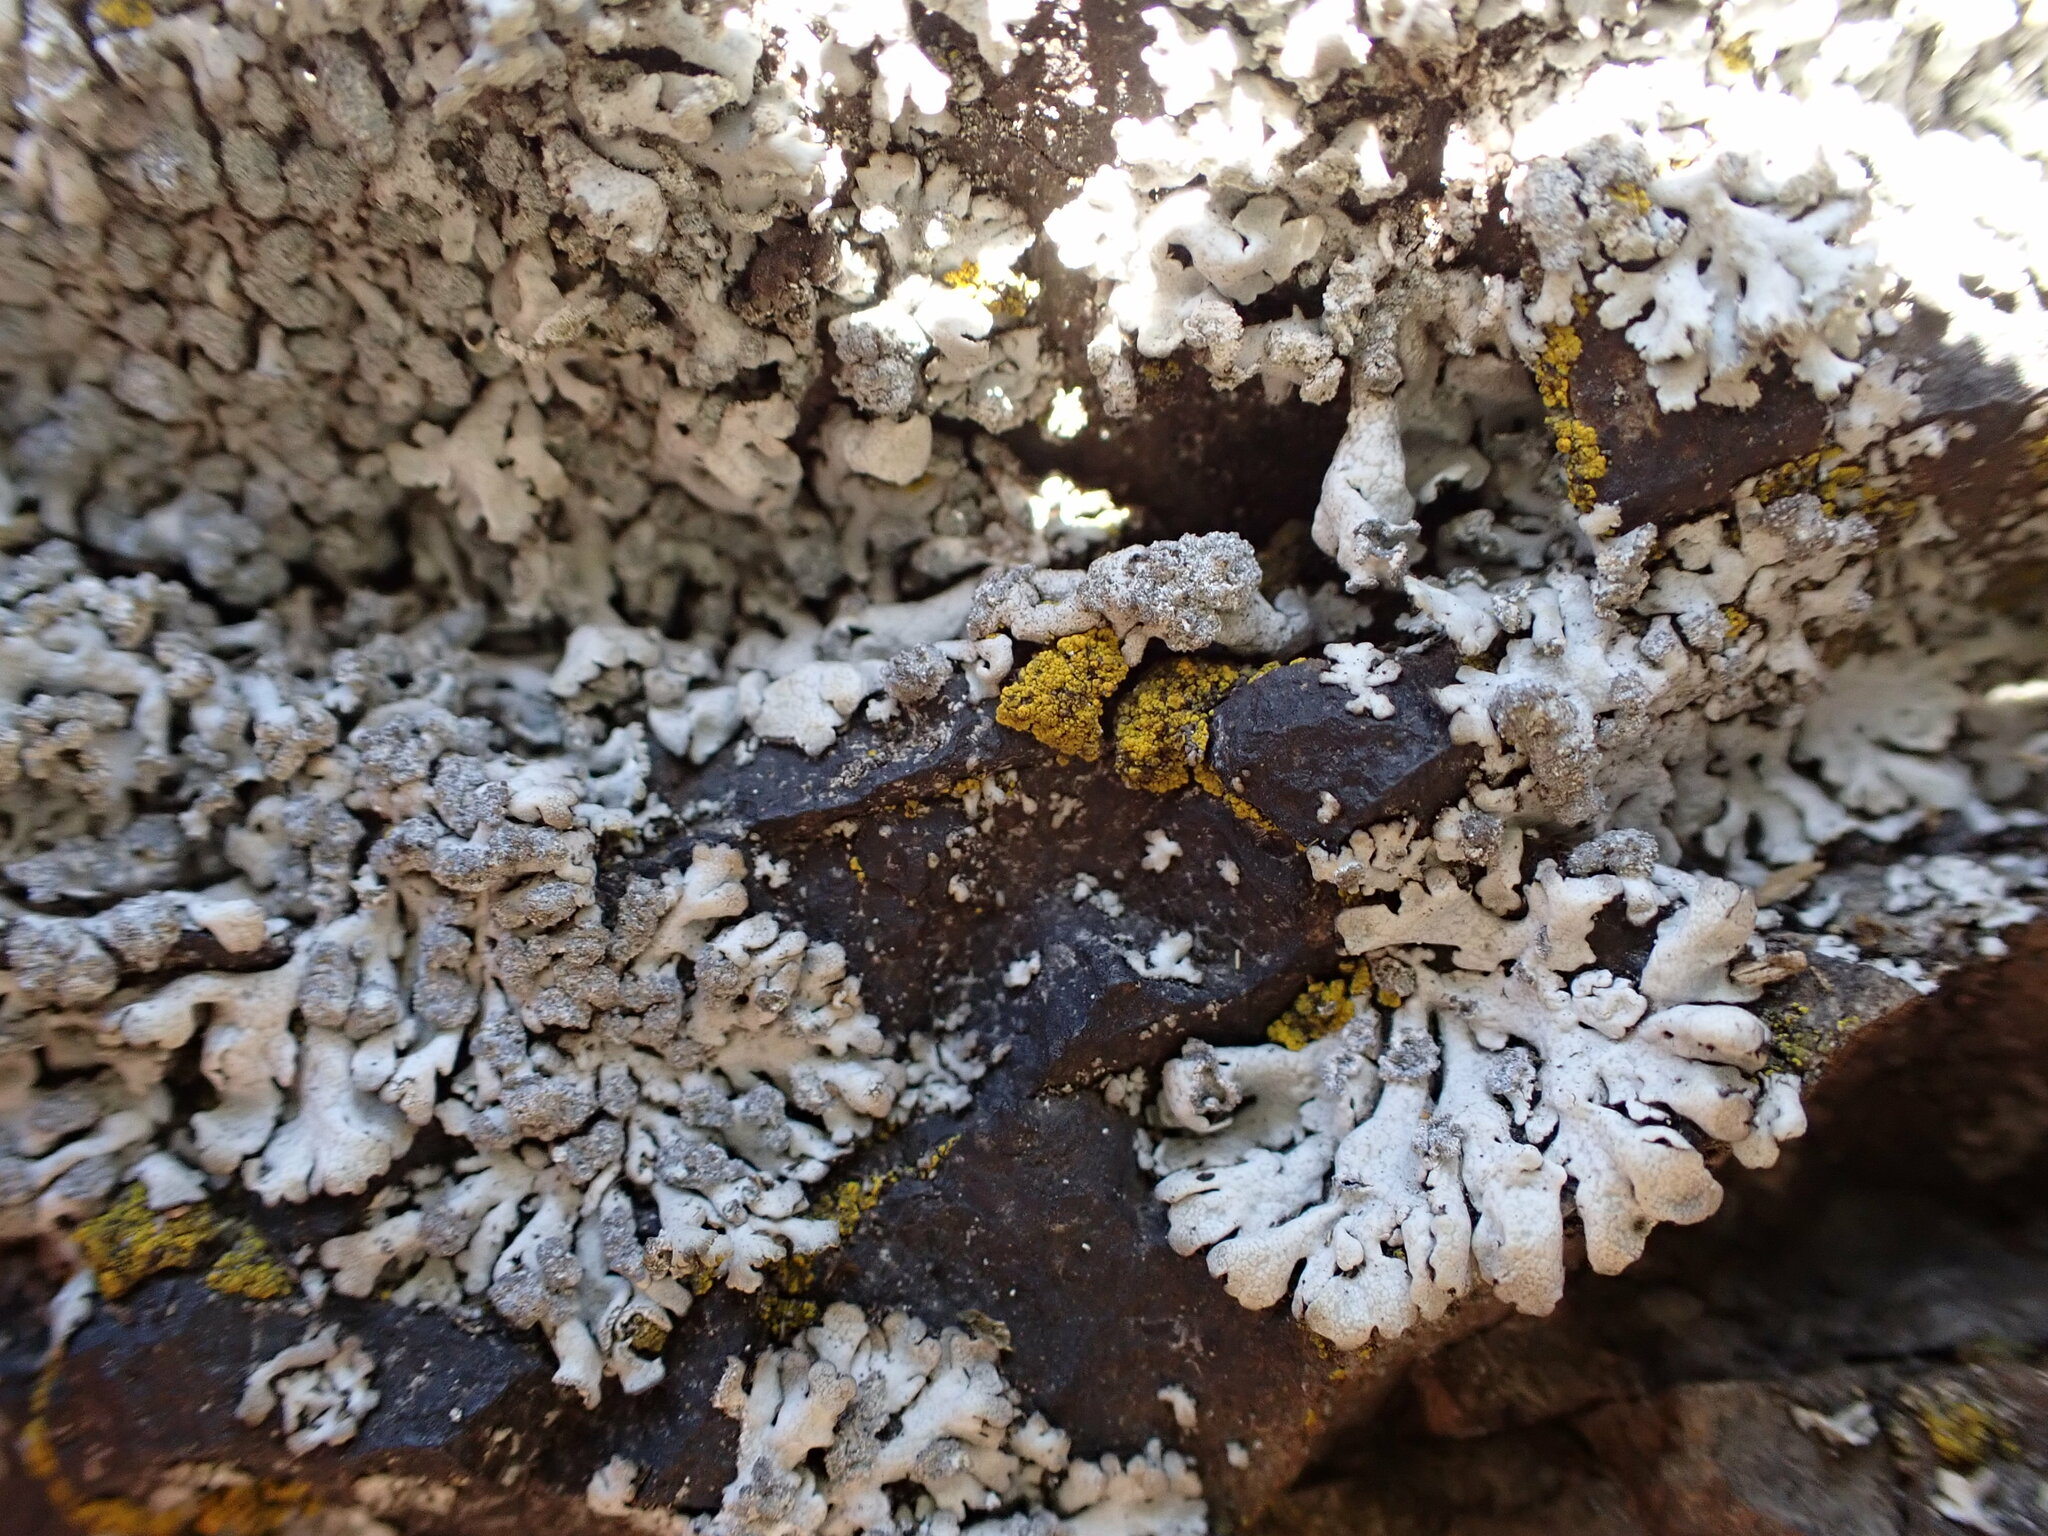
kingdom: Fungi
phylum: Ascomycota
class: Lecanoromycetes
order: Caliciales
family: Physciaceae
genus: Physcia
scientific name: Physcia caesia
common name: Blue-gray rosette lichen
